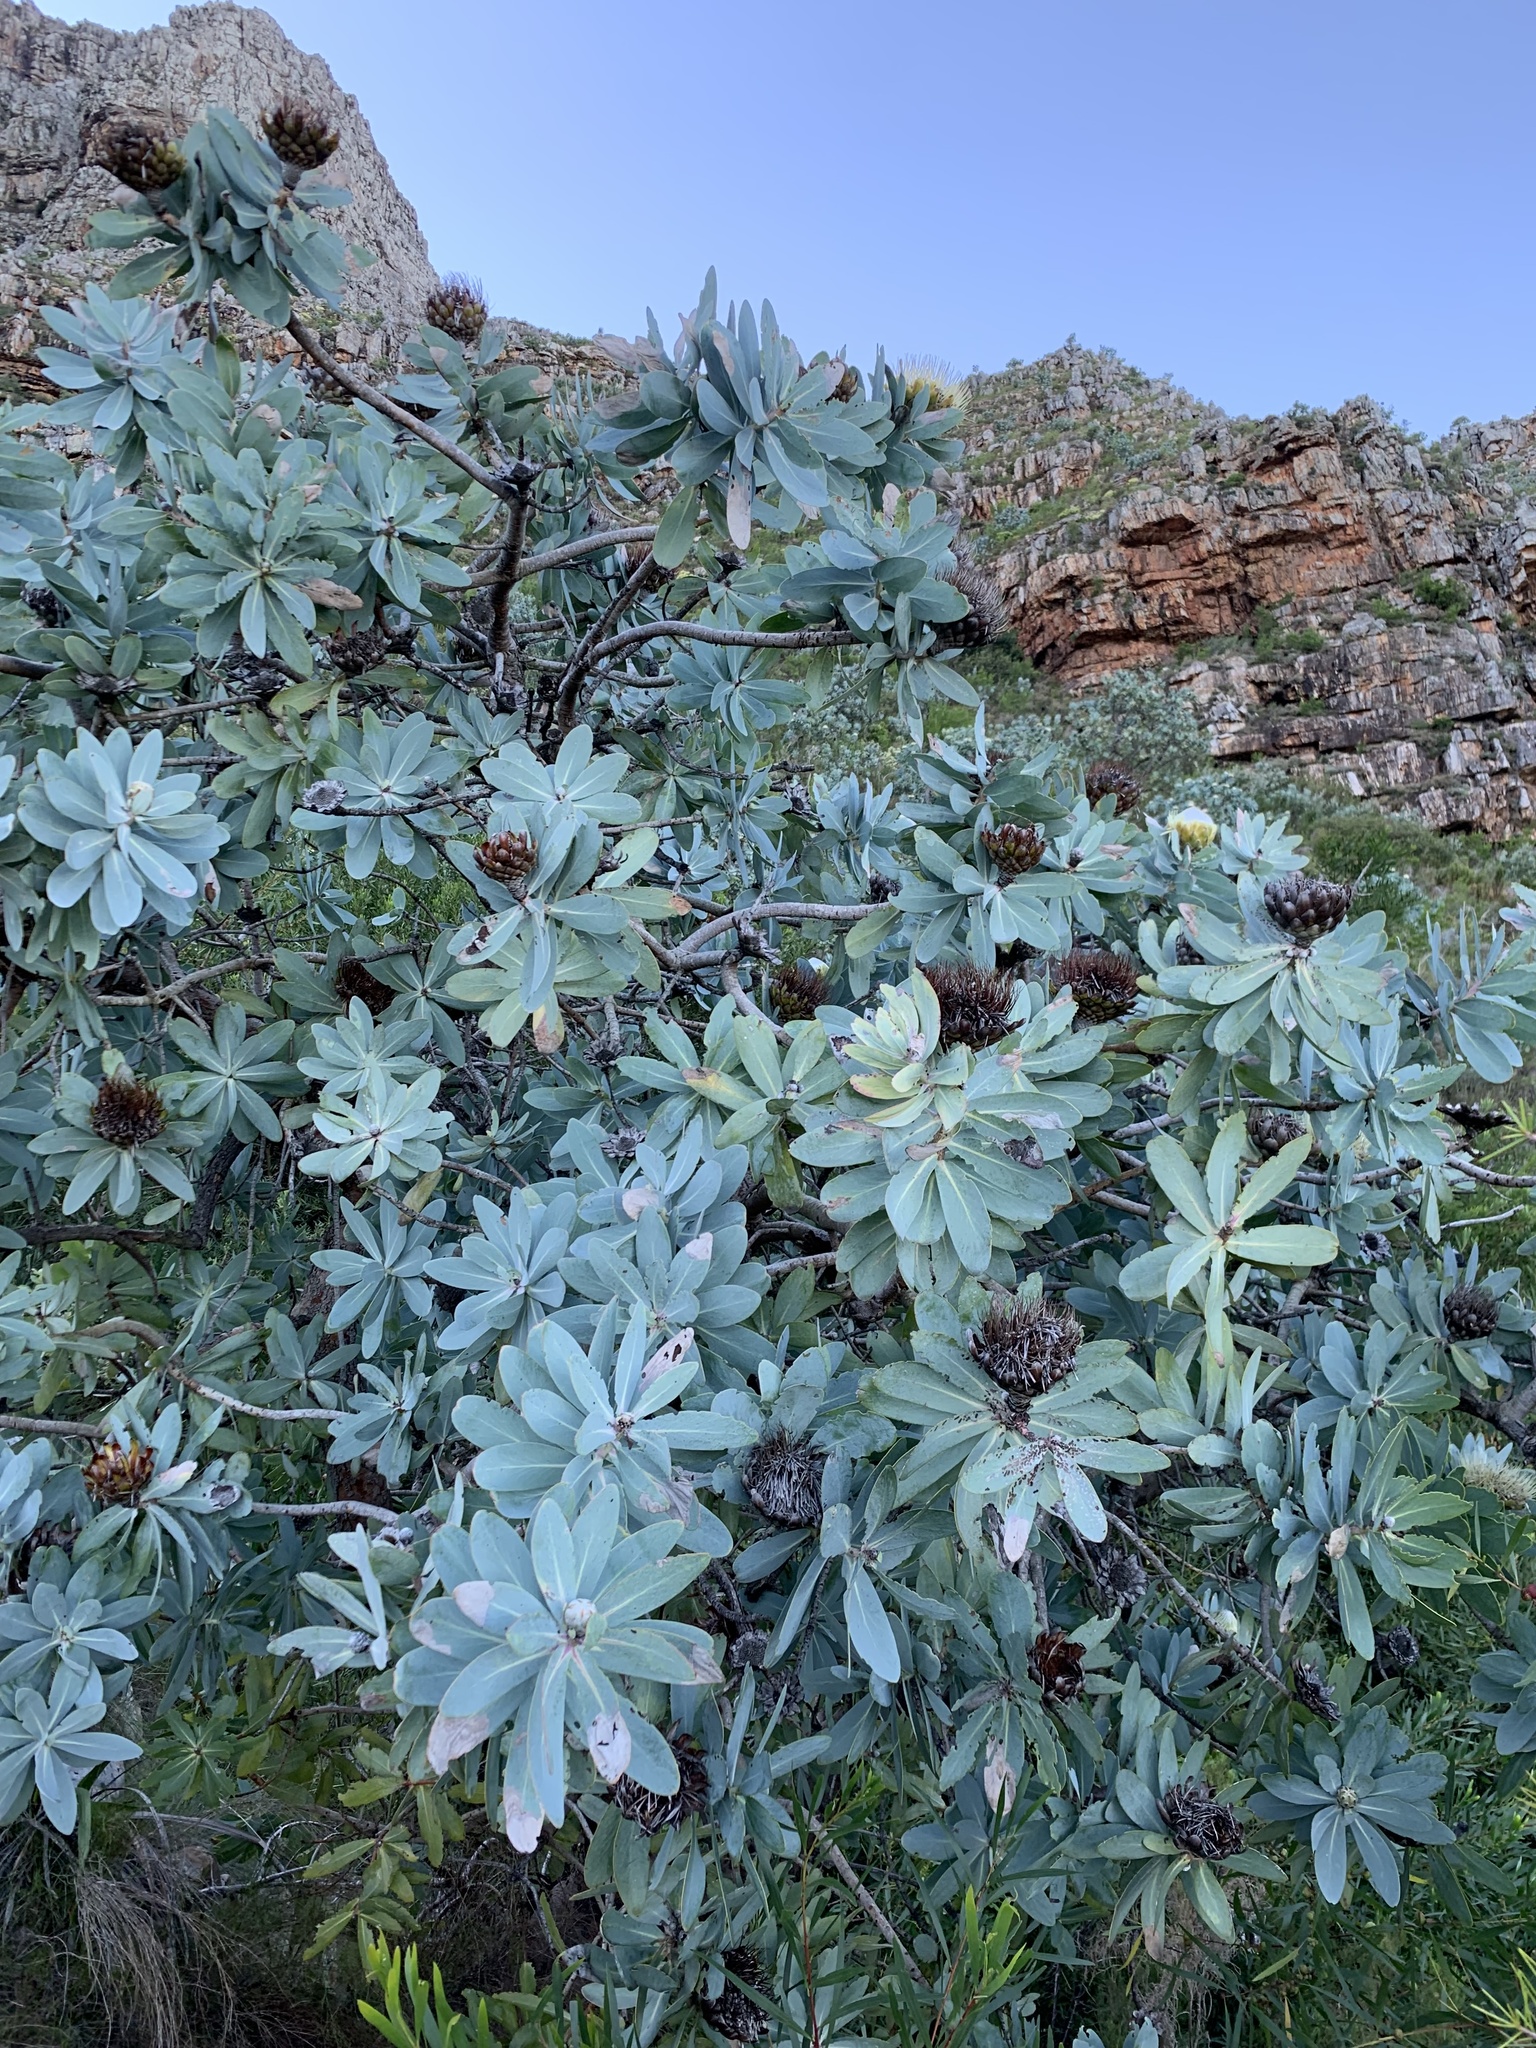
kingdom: Plantae
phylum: Tracheophyta
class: Magnoliopsida
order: Proteales
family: Proteaceae
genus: Protea
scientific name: Protea nitida
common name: Tree protea
